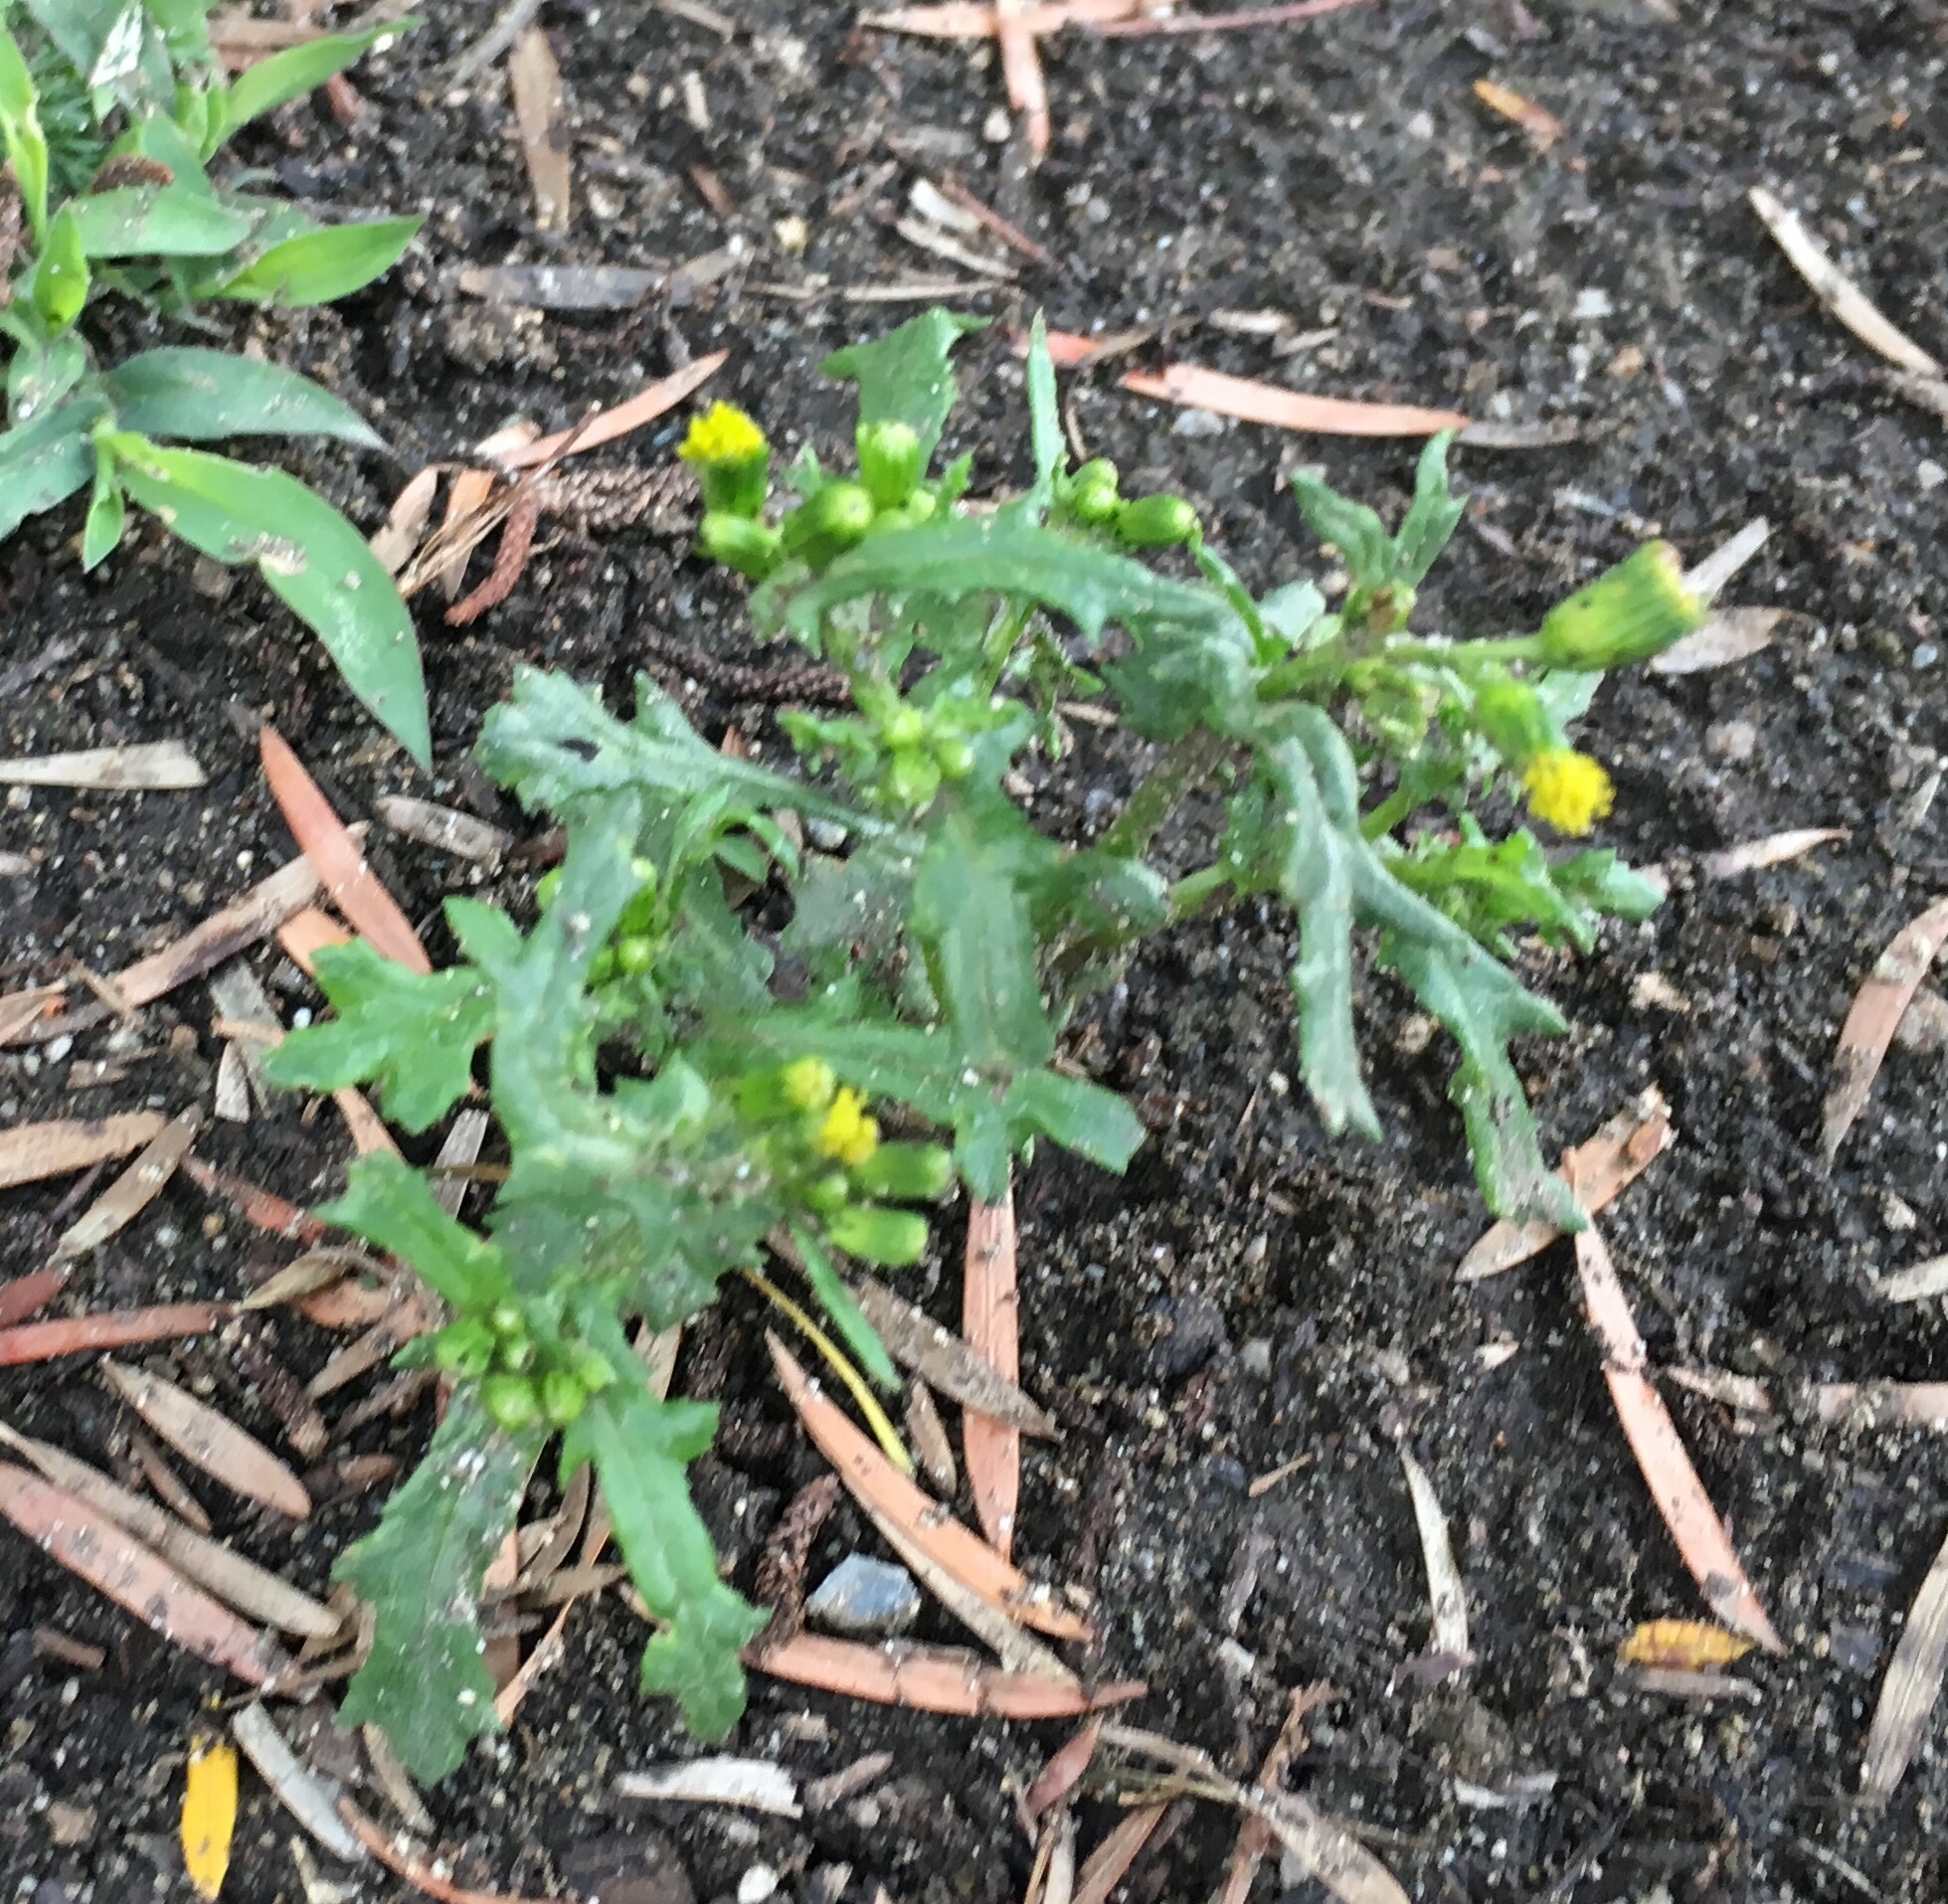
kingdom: Plantae
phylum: Tracheophyta
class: Magnoliopsida
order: Asterales
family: Asteraceae
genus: Senecio
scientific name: Senecio vulgaris
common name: Old-man-in-the-spring
